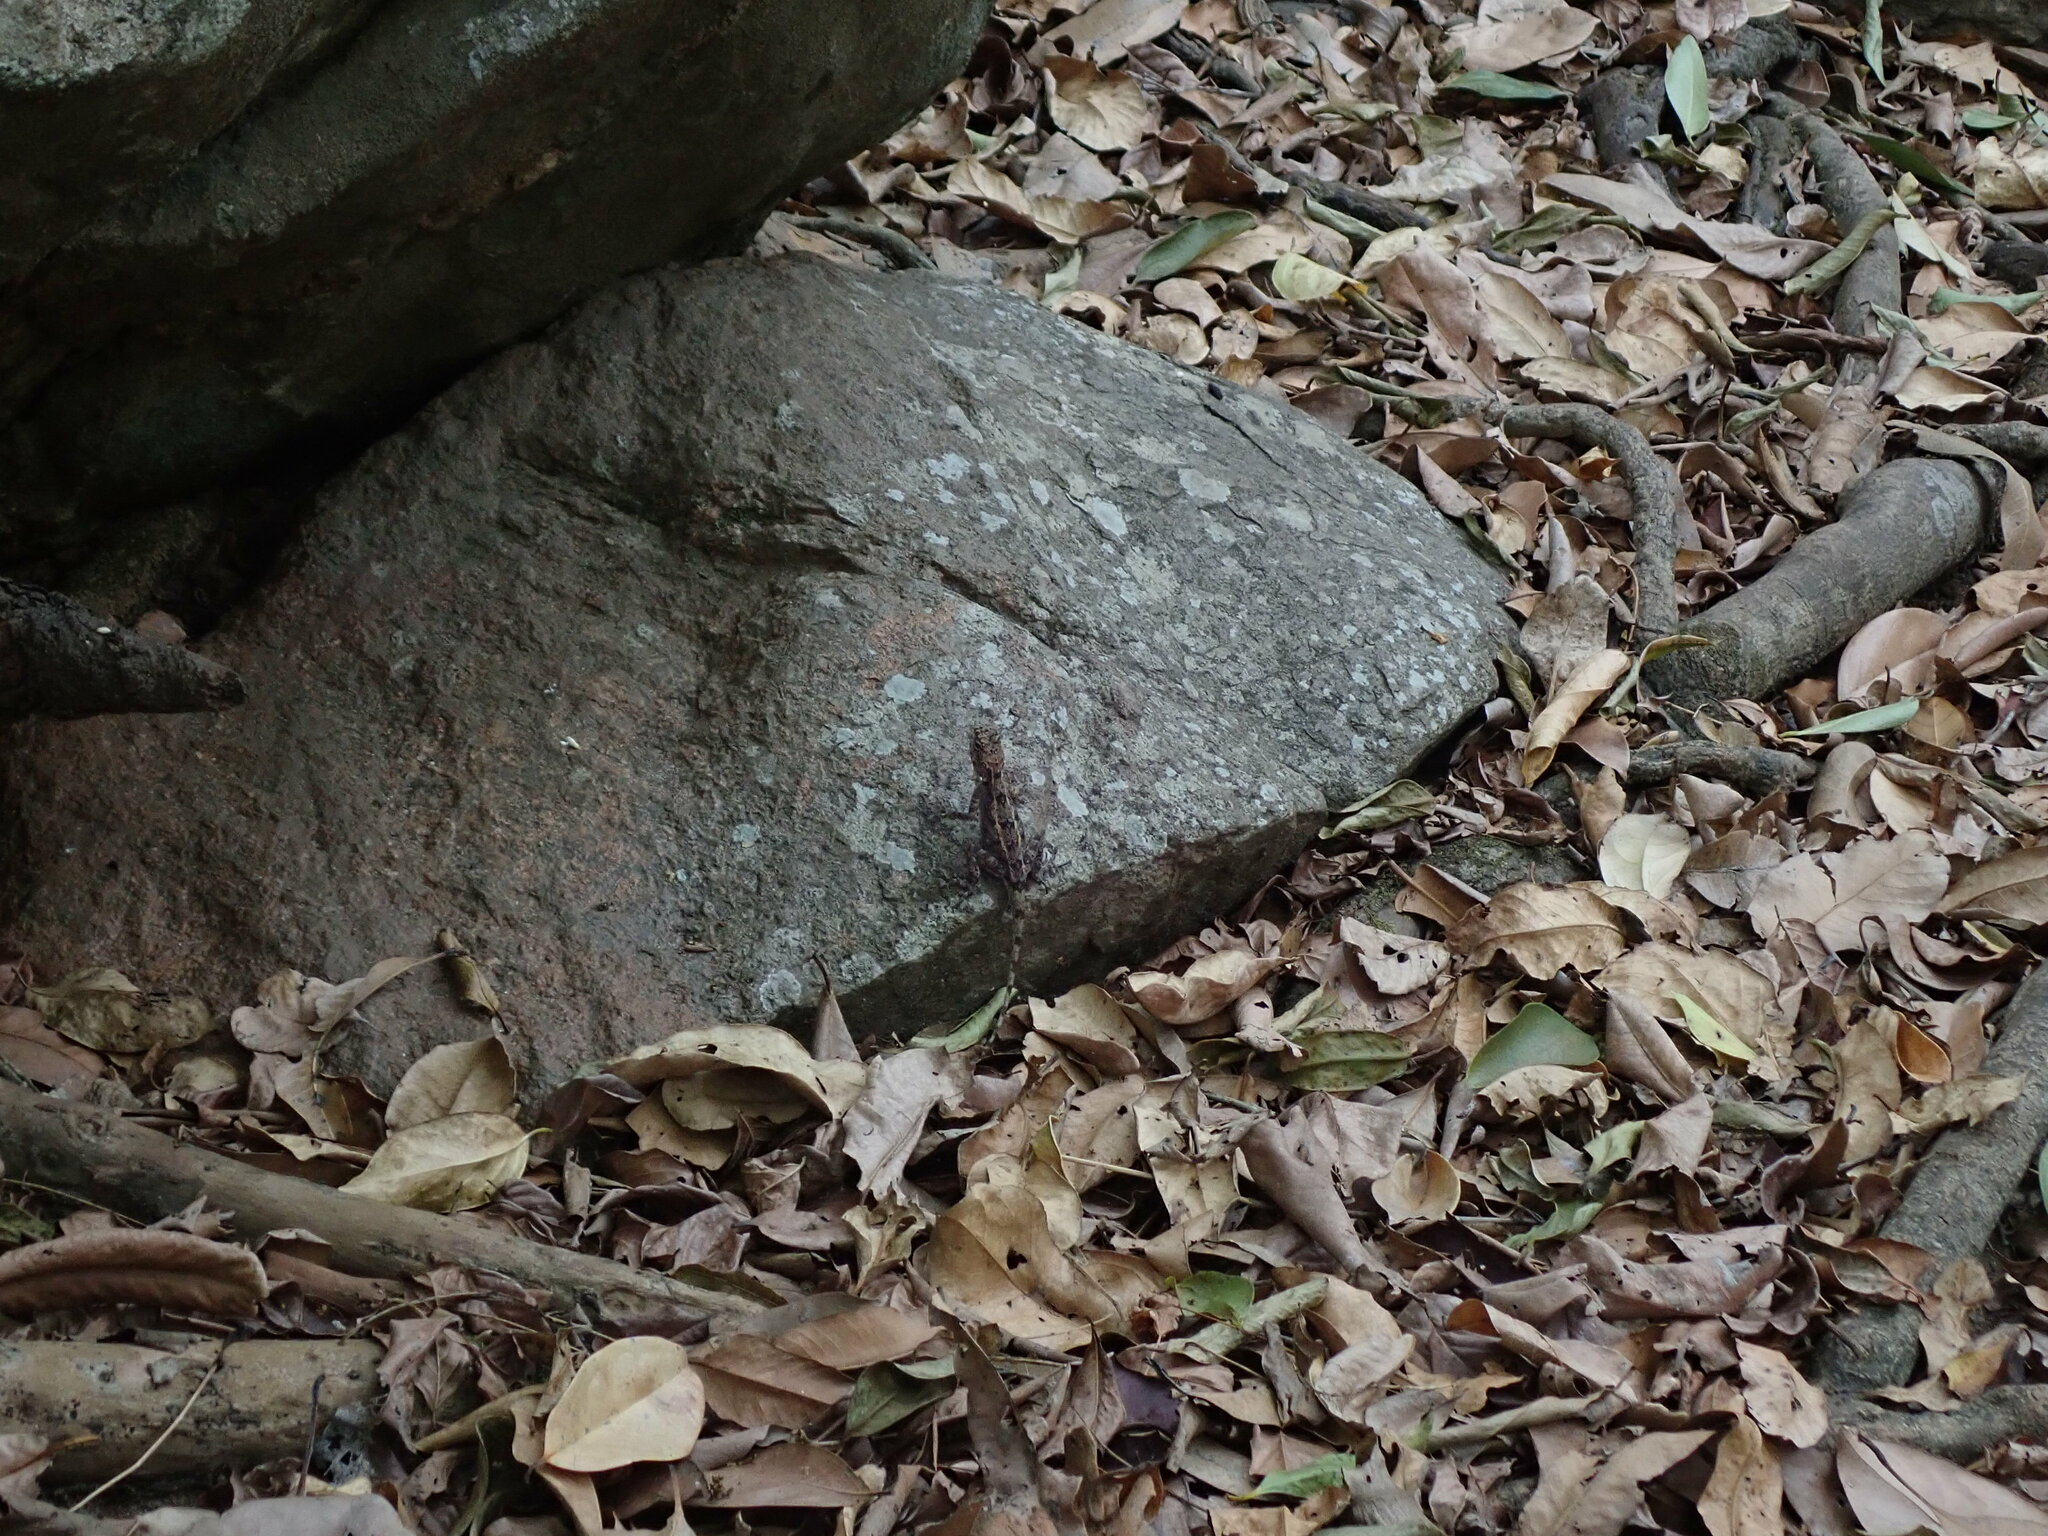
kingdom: Animalia
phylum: Chordata
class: Squamata
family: Agamidae
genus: Psammophilus
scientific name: Psammophilus dorsalis
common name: South indian rock agama
